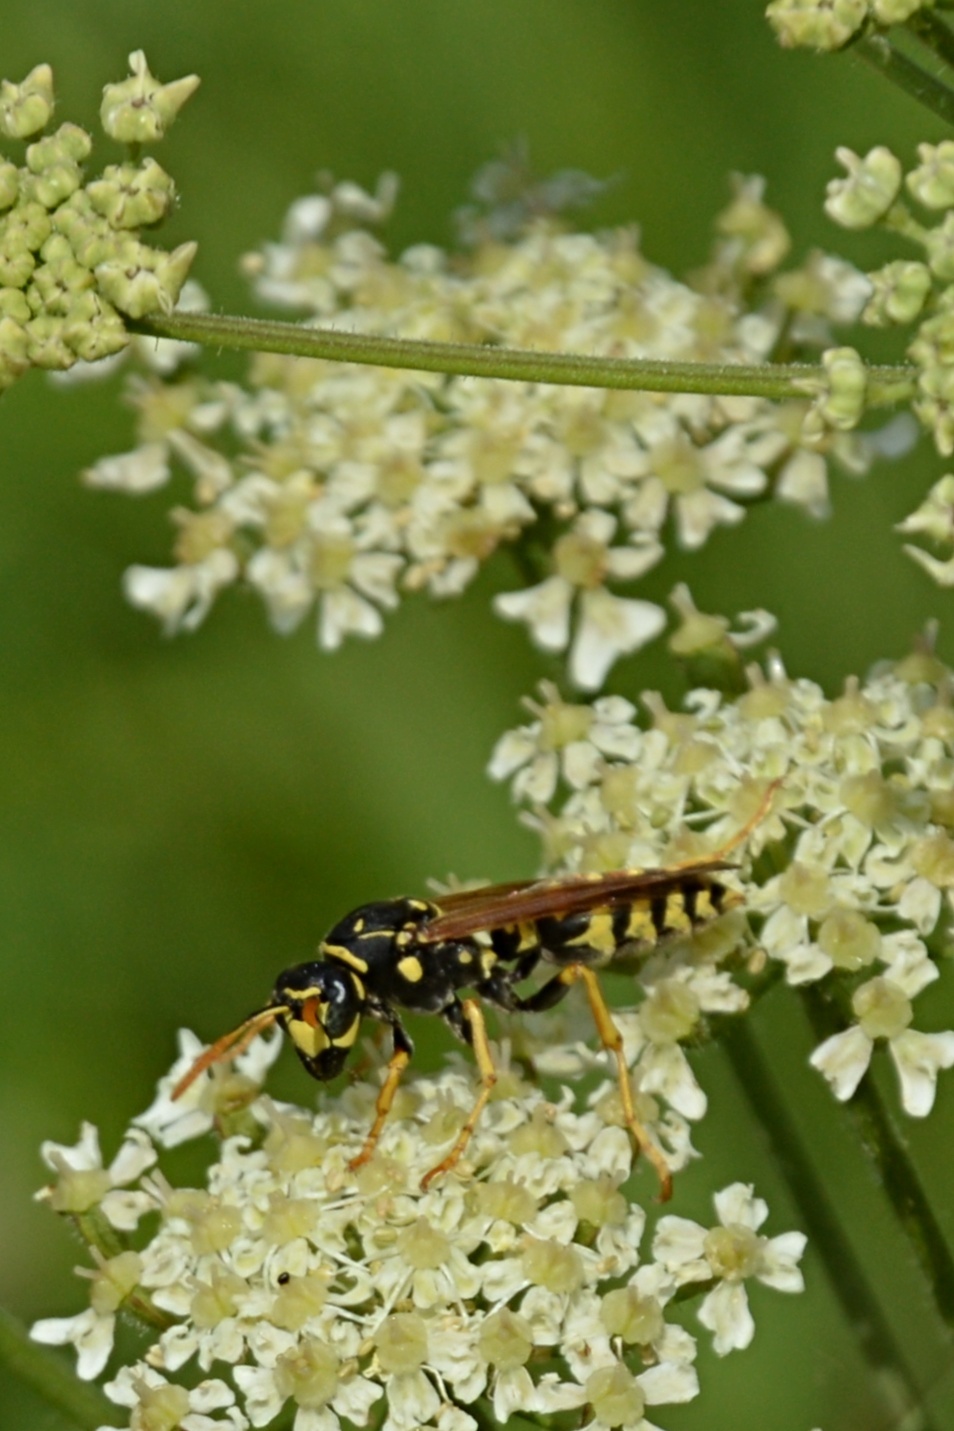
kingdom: Animalia
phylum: Arthropoda
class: Insecta
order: Hymenoptera
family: Eumenidae
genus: Polistes
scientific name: Polistes dominula
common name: Paper wasp
